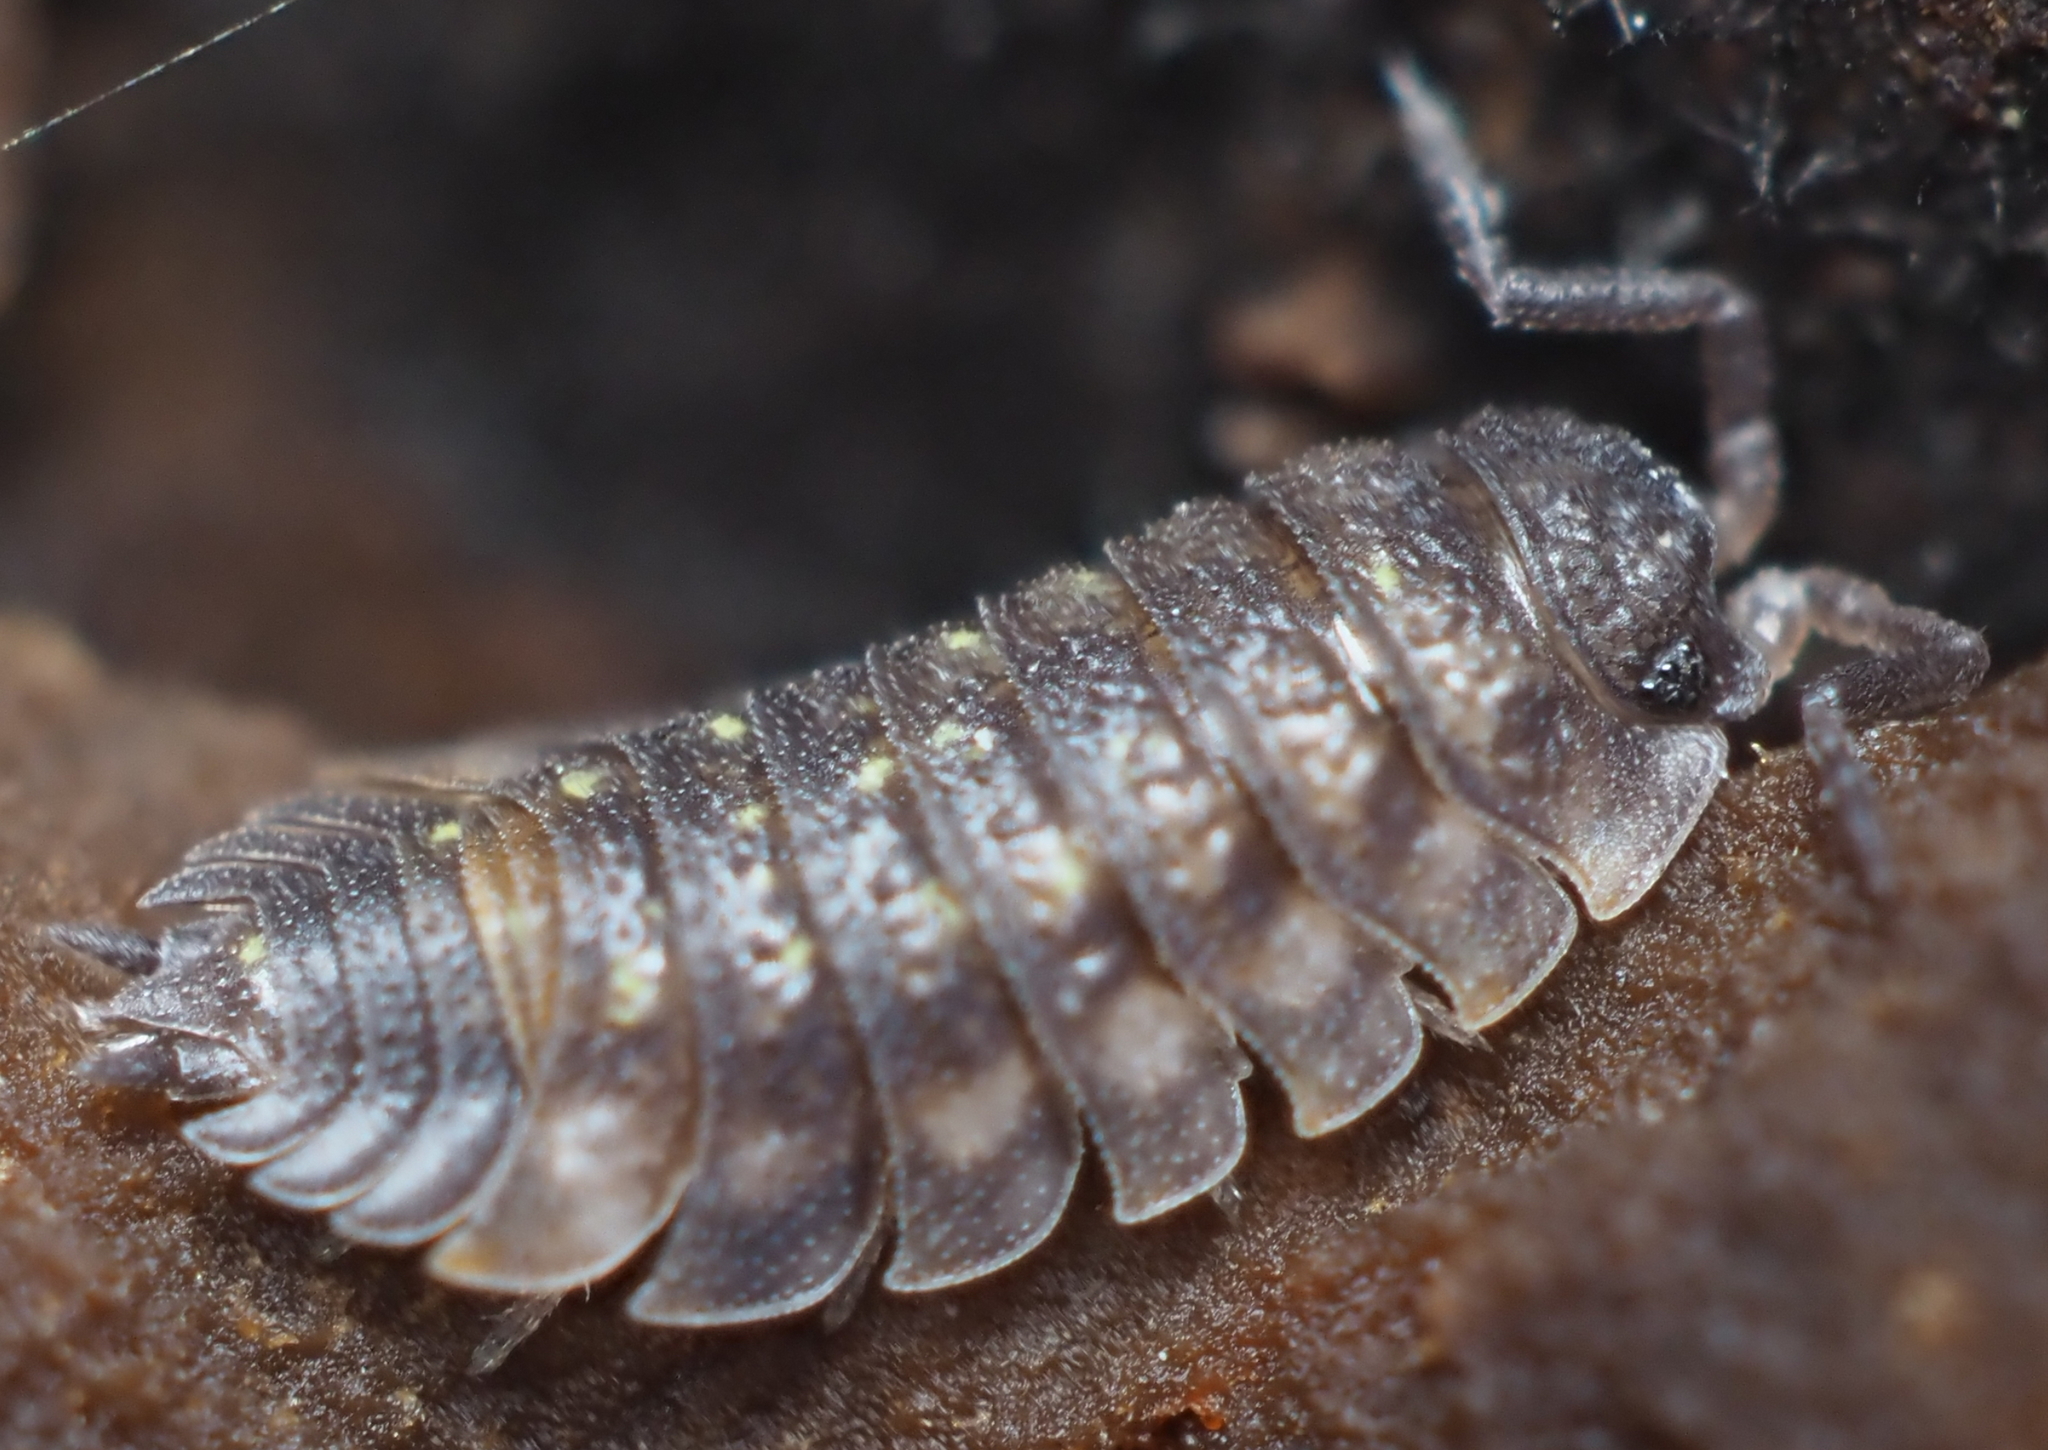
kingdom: Animalia
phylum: Arthropoda
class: Malacostraca
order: Isopoda
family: Oniscidae
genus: Oniscus
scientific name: Oniscus asellus
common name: Common shiny woodlouse
